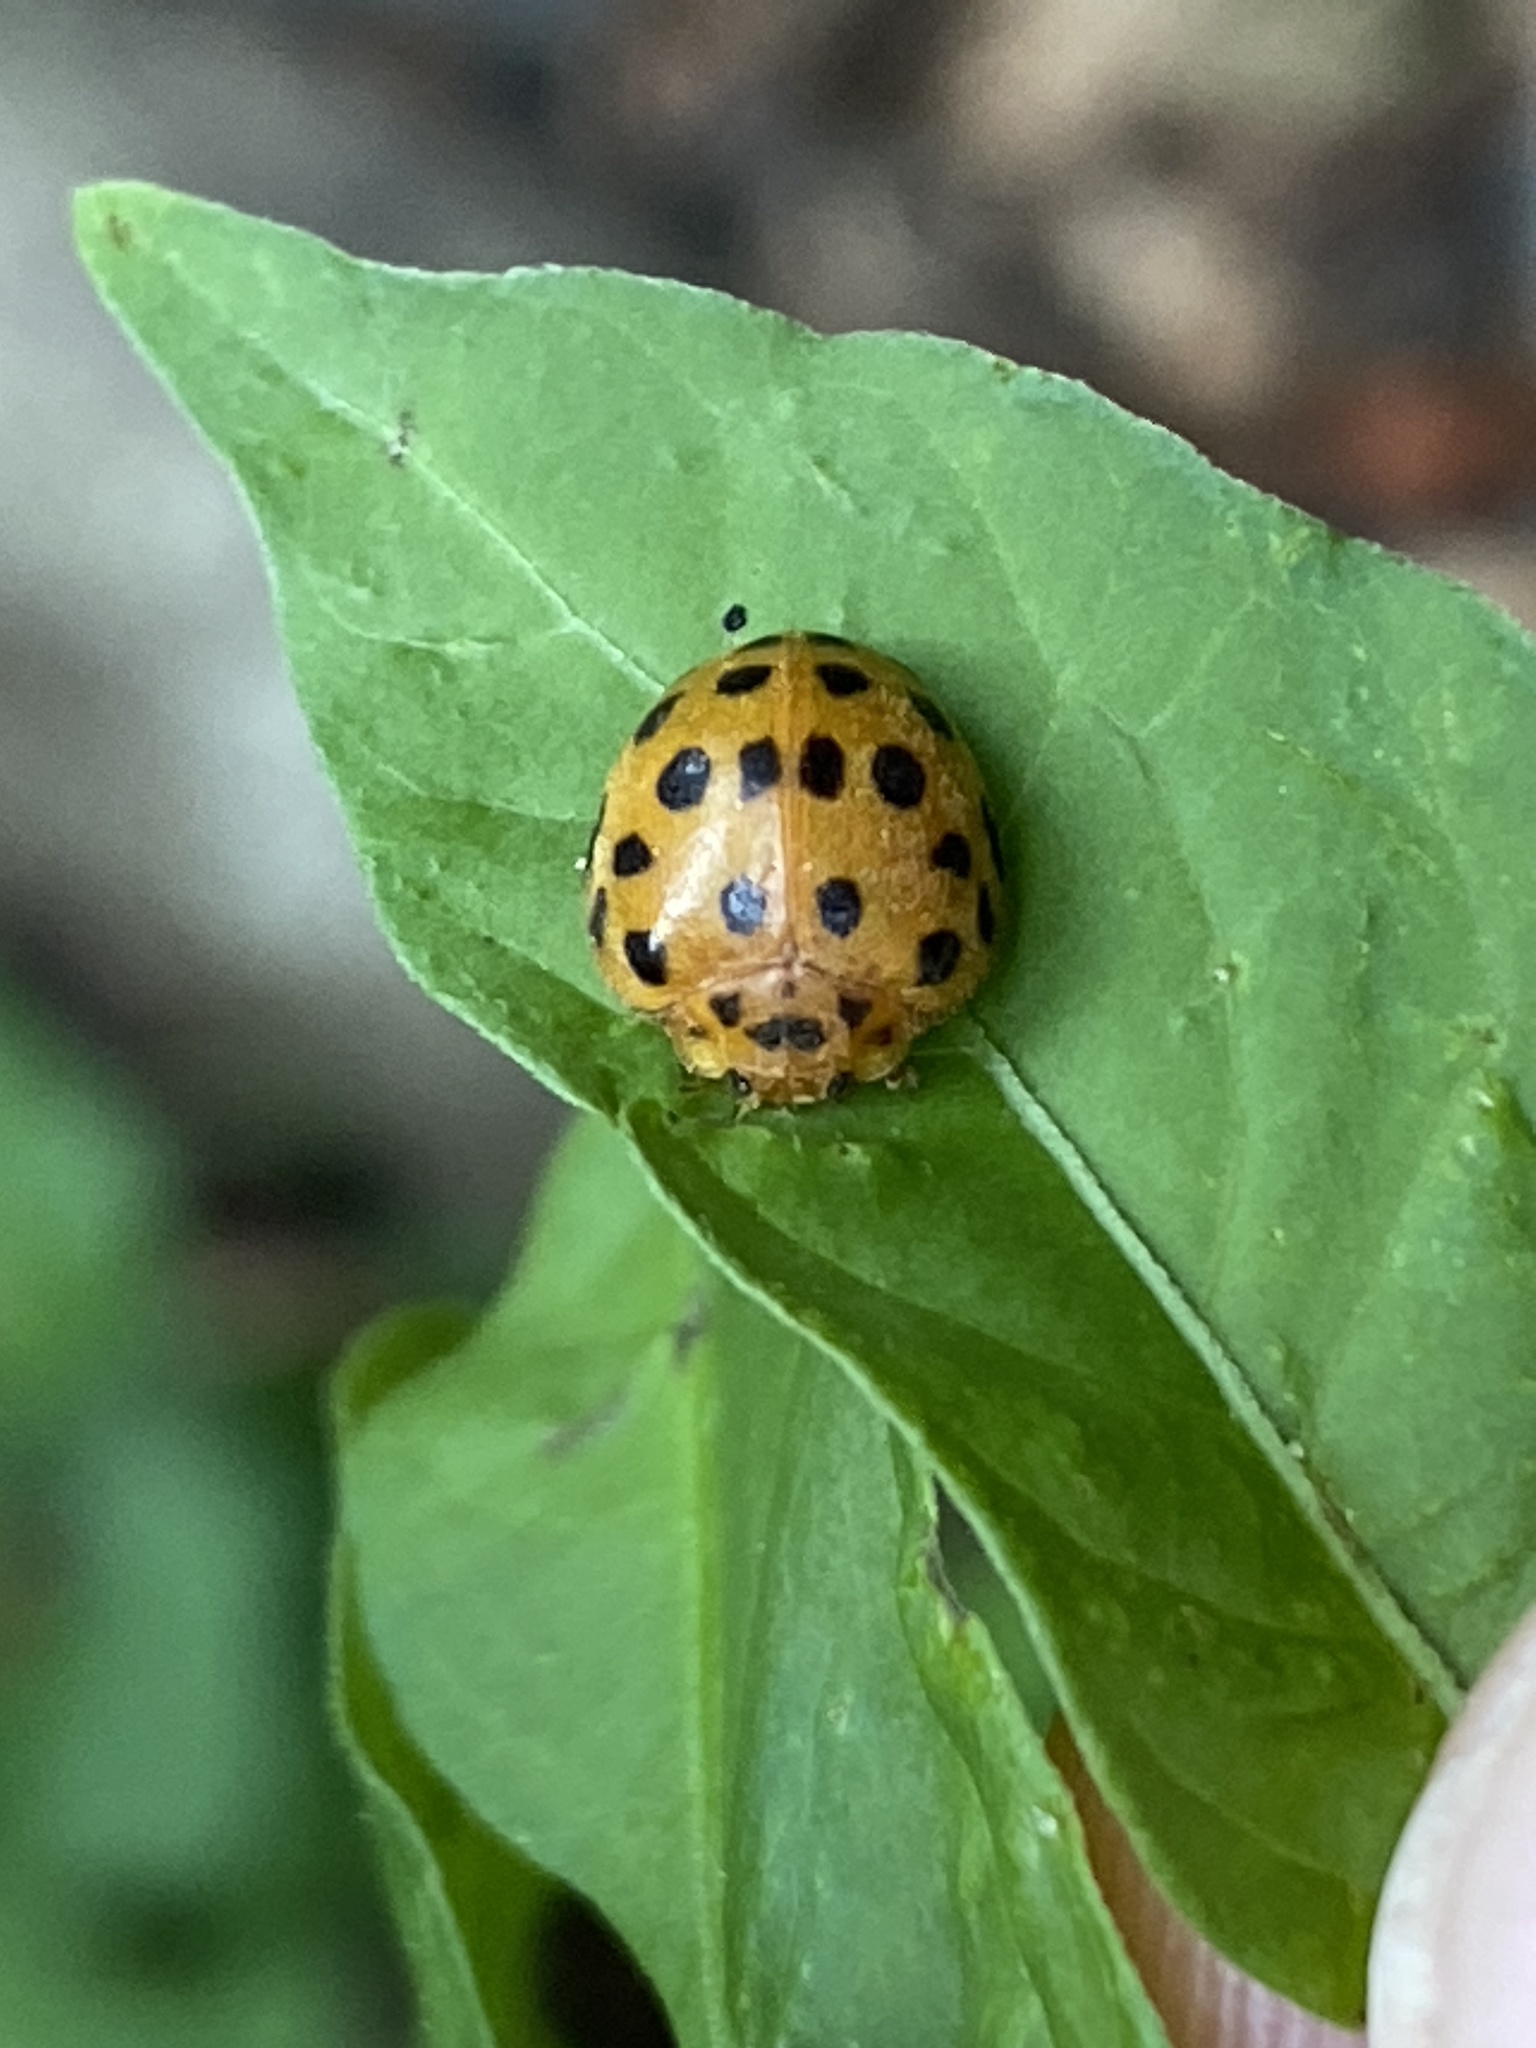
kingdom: Animalia
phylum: Arthropoda
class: Insecta
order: Coleoptera
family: Coccinellidae
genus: Henosepilachna
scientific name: Henosepilachna vigintioctopunctata
